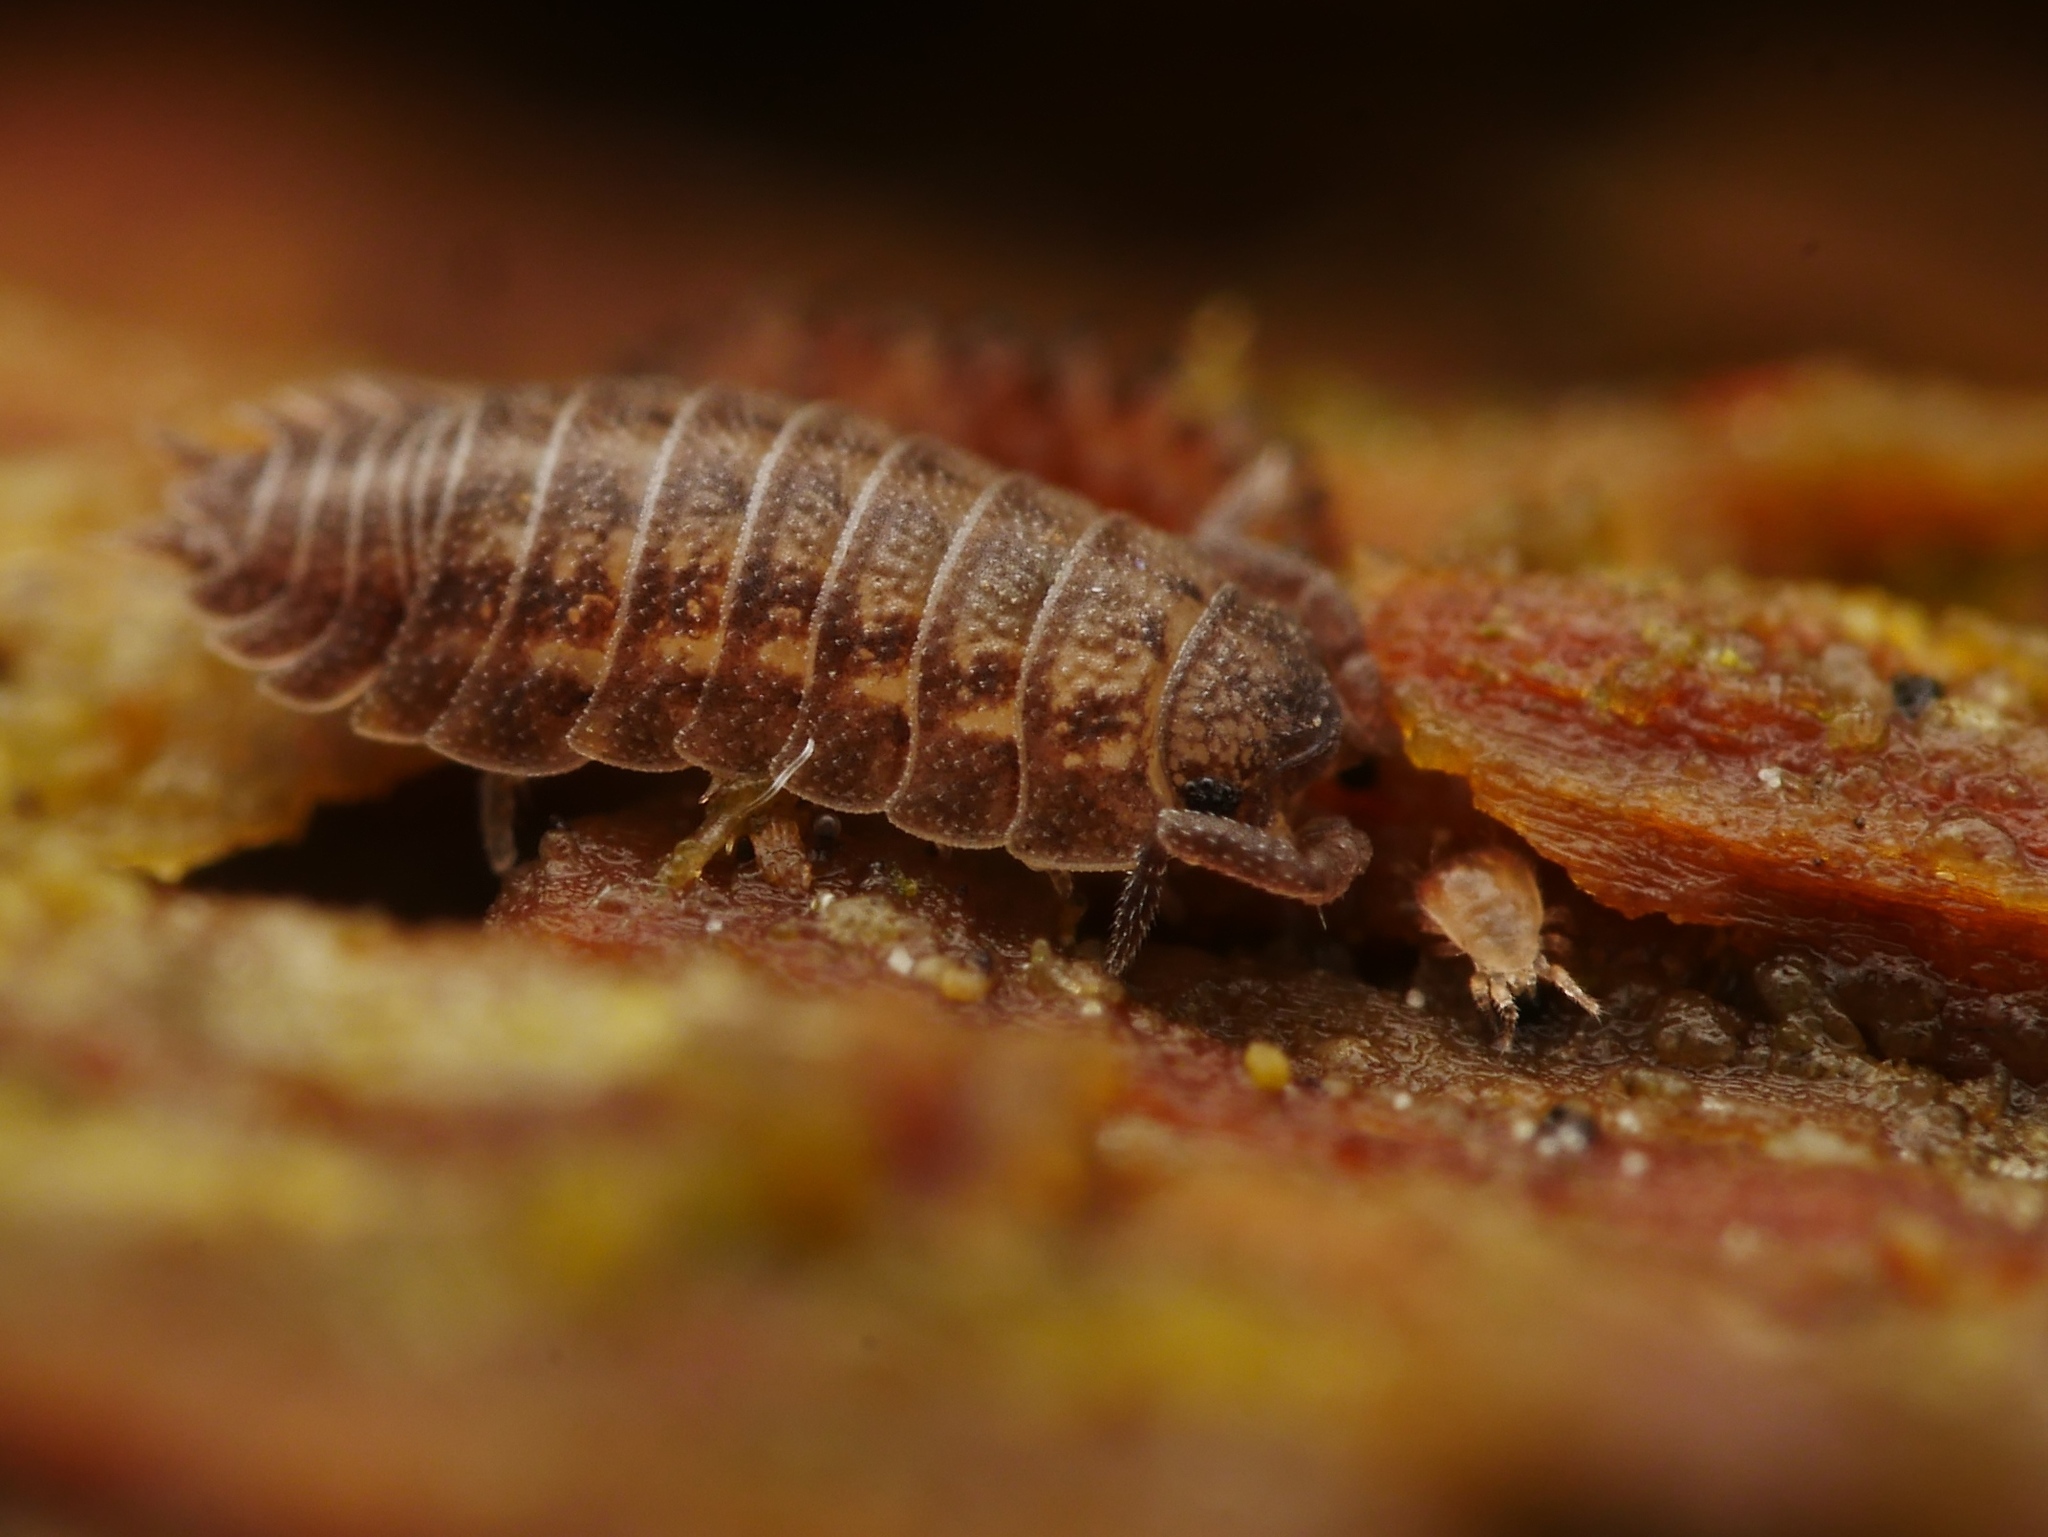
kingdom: Animalia
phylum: Arthropoda
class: Malacostraca
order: Isopoda
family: Trachelipodidae
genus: Trachelipus
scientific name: Trachelipus rathkii
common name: Isopod
